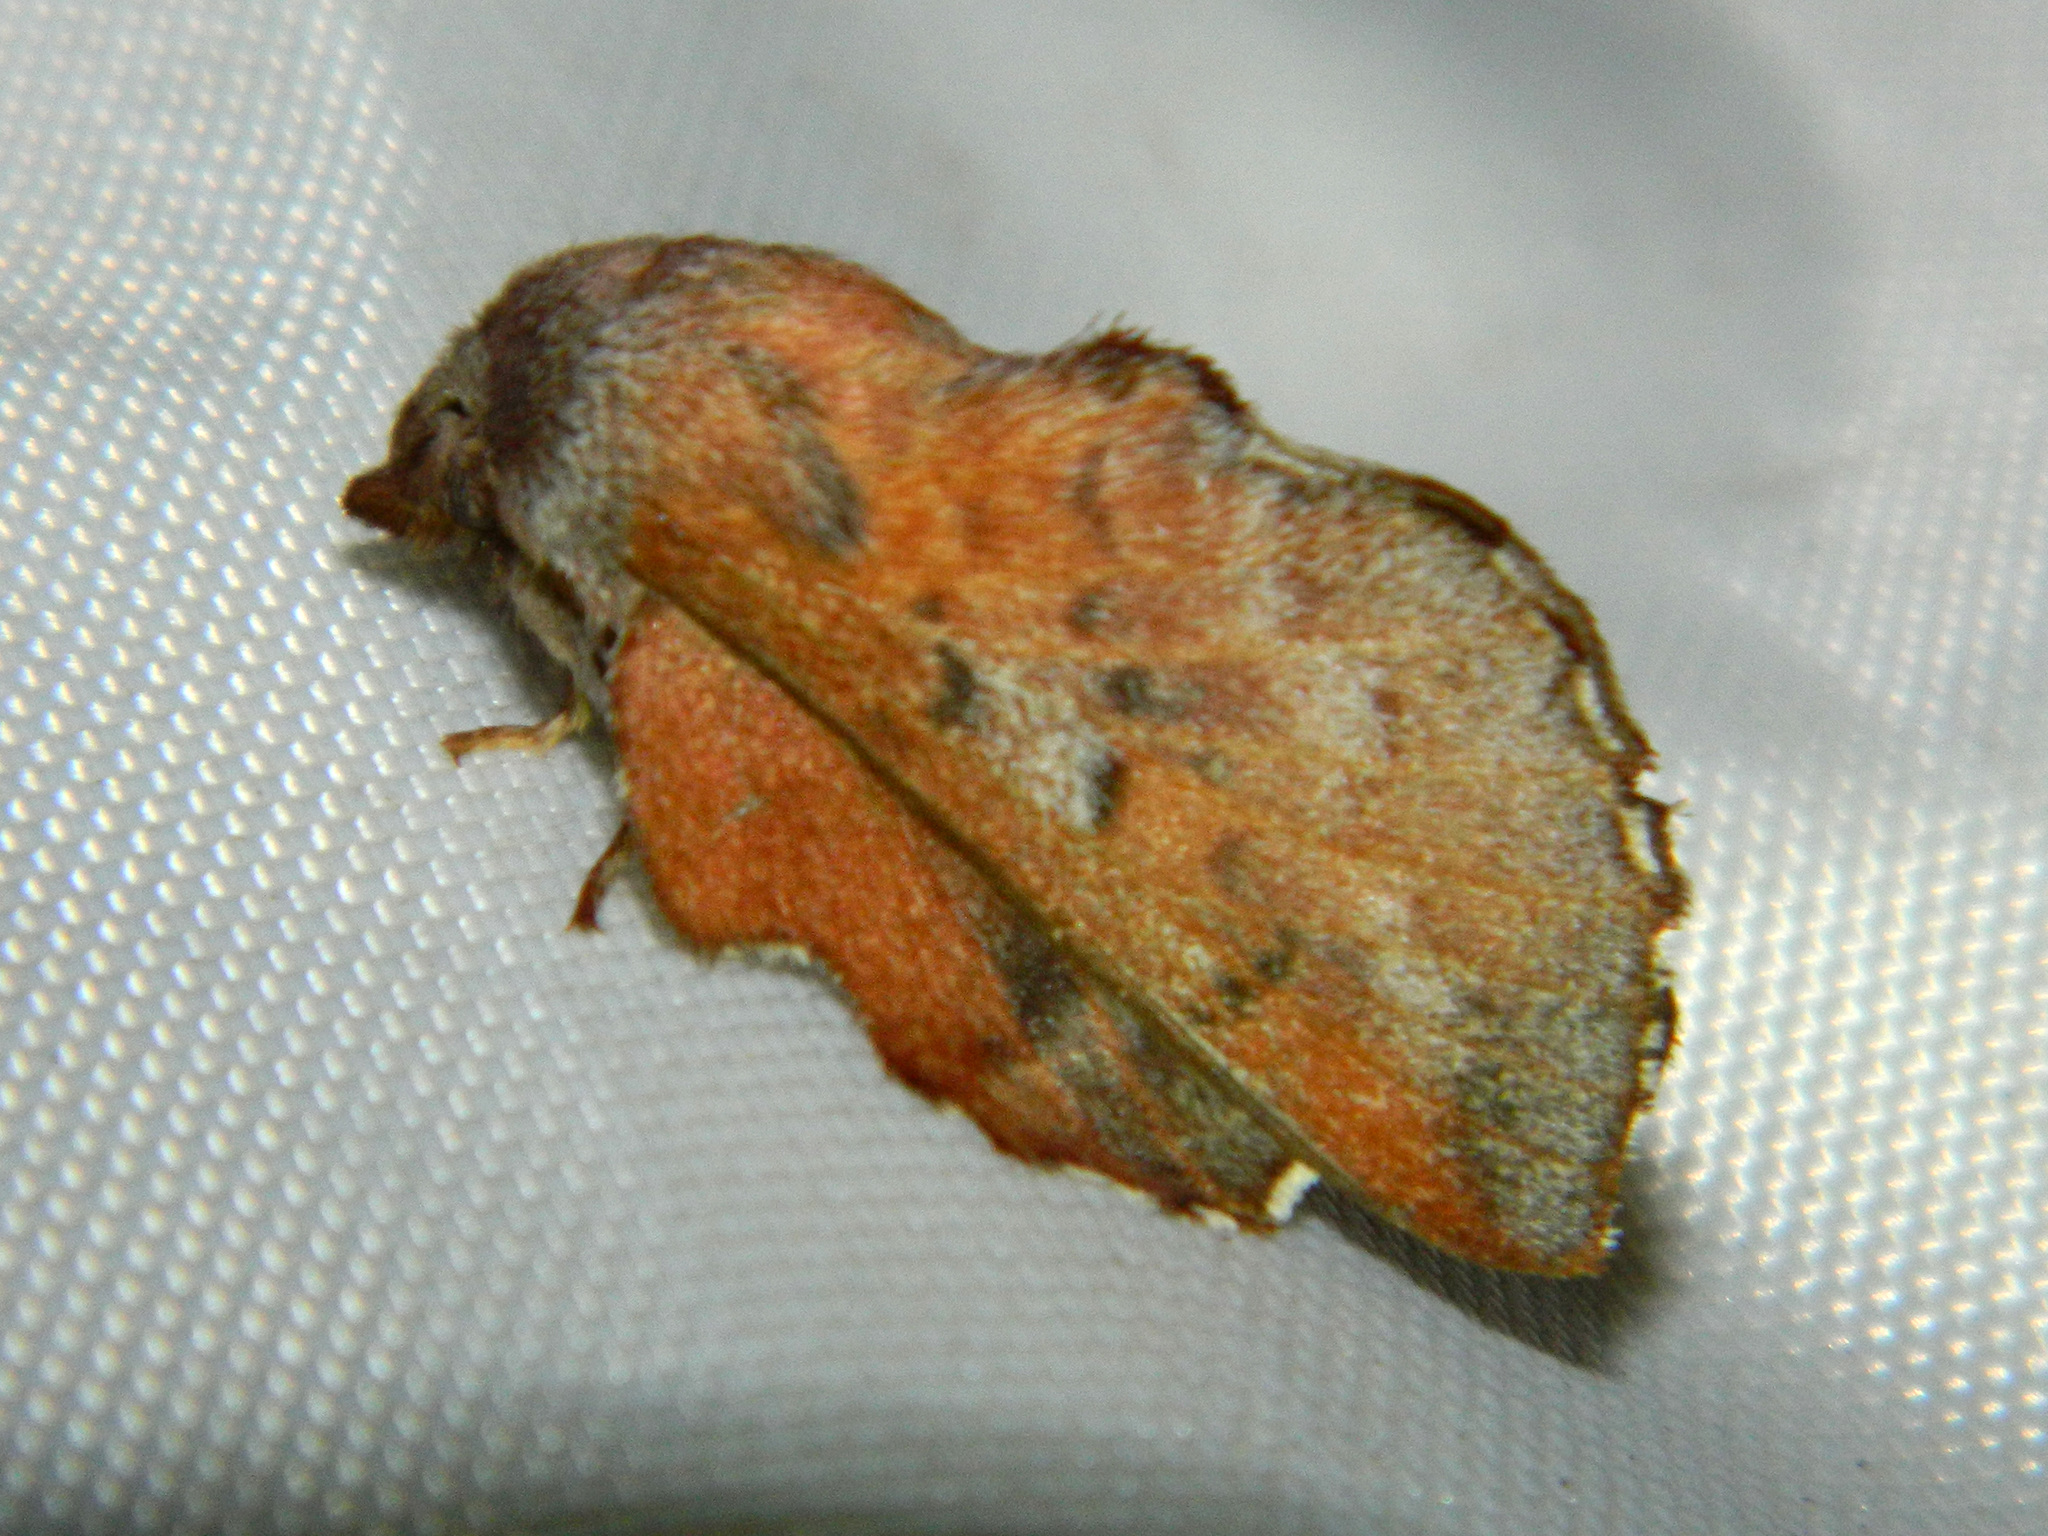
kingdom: Animalia
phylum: Arthropoda
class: Insecta
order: Lepidoptera
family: Lasiocampidae
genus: Phyllodesma
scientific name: Phyllodesma americana
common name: American lappet moth
